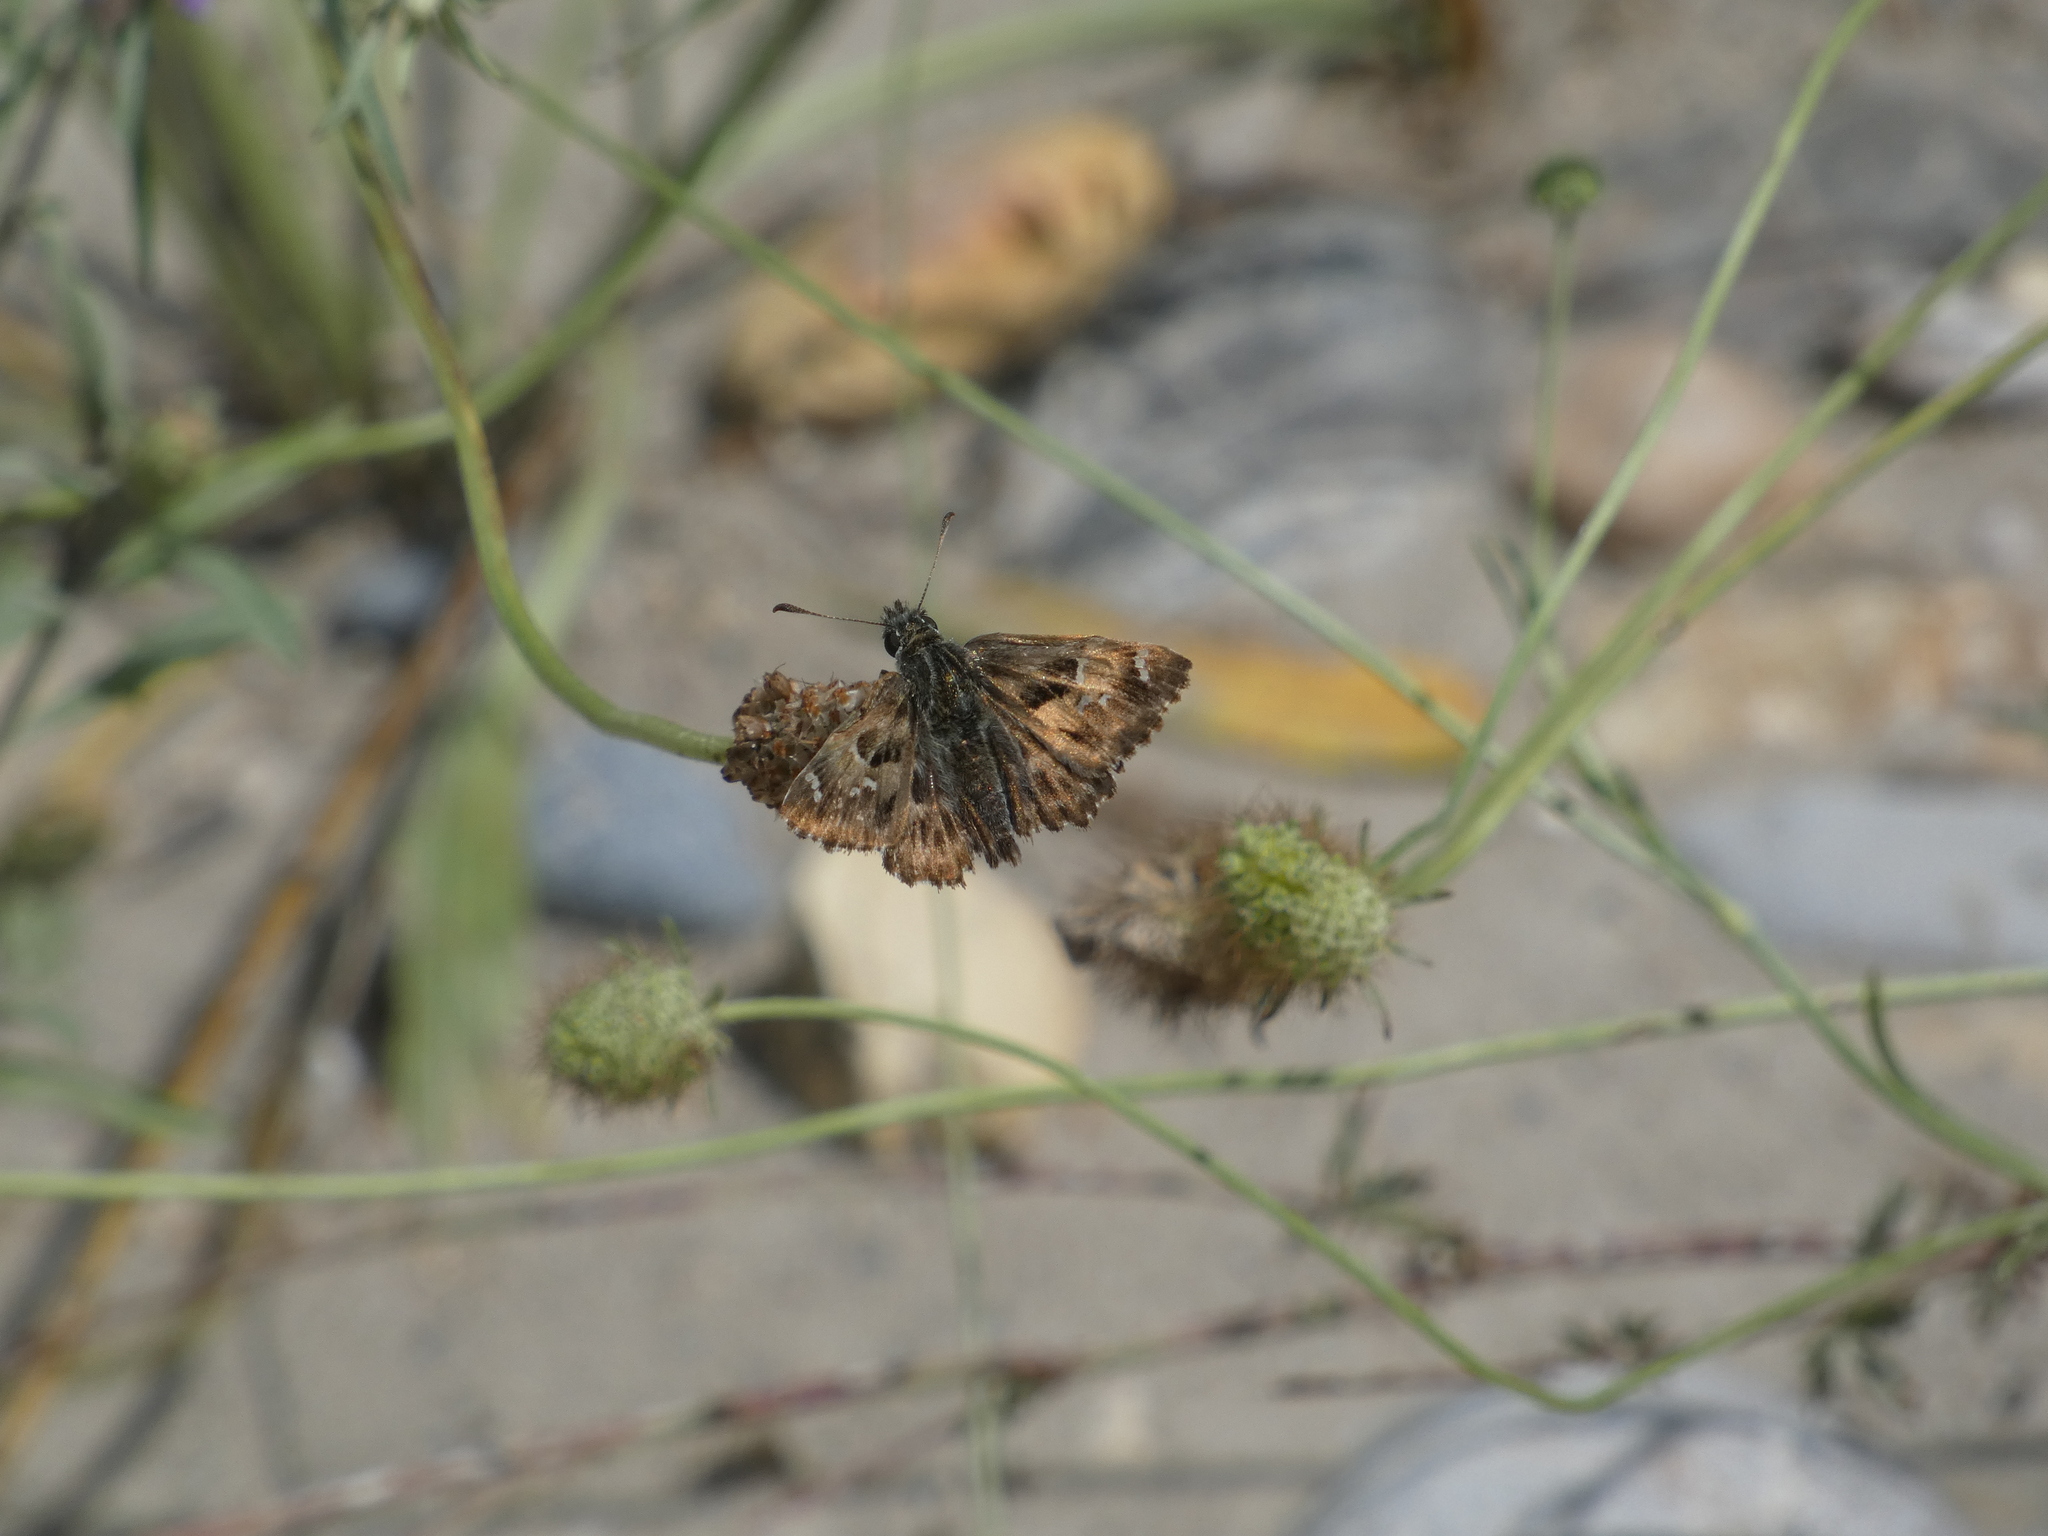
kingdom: Animalia
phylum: Arthropoda
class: Insecta
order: Lepidoptera
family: Hesperiidae
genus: Carcharodus
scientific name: Carcharodus alceae
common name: Mallow skipper
